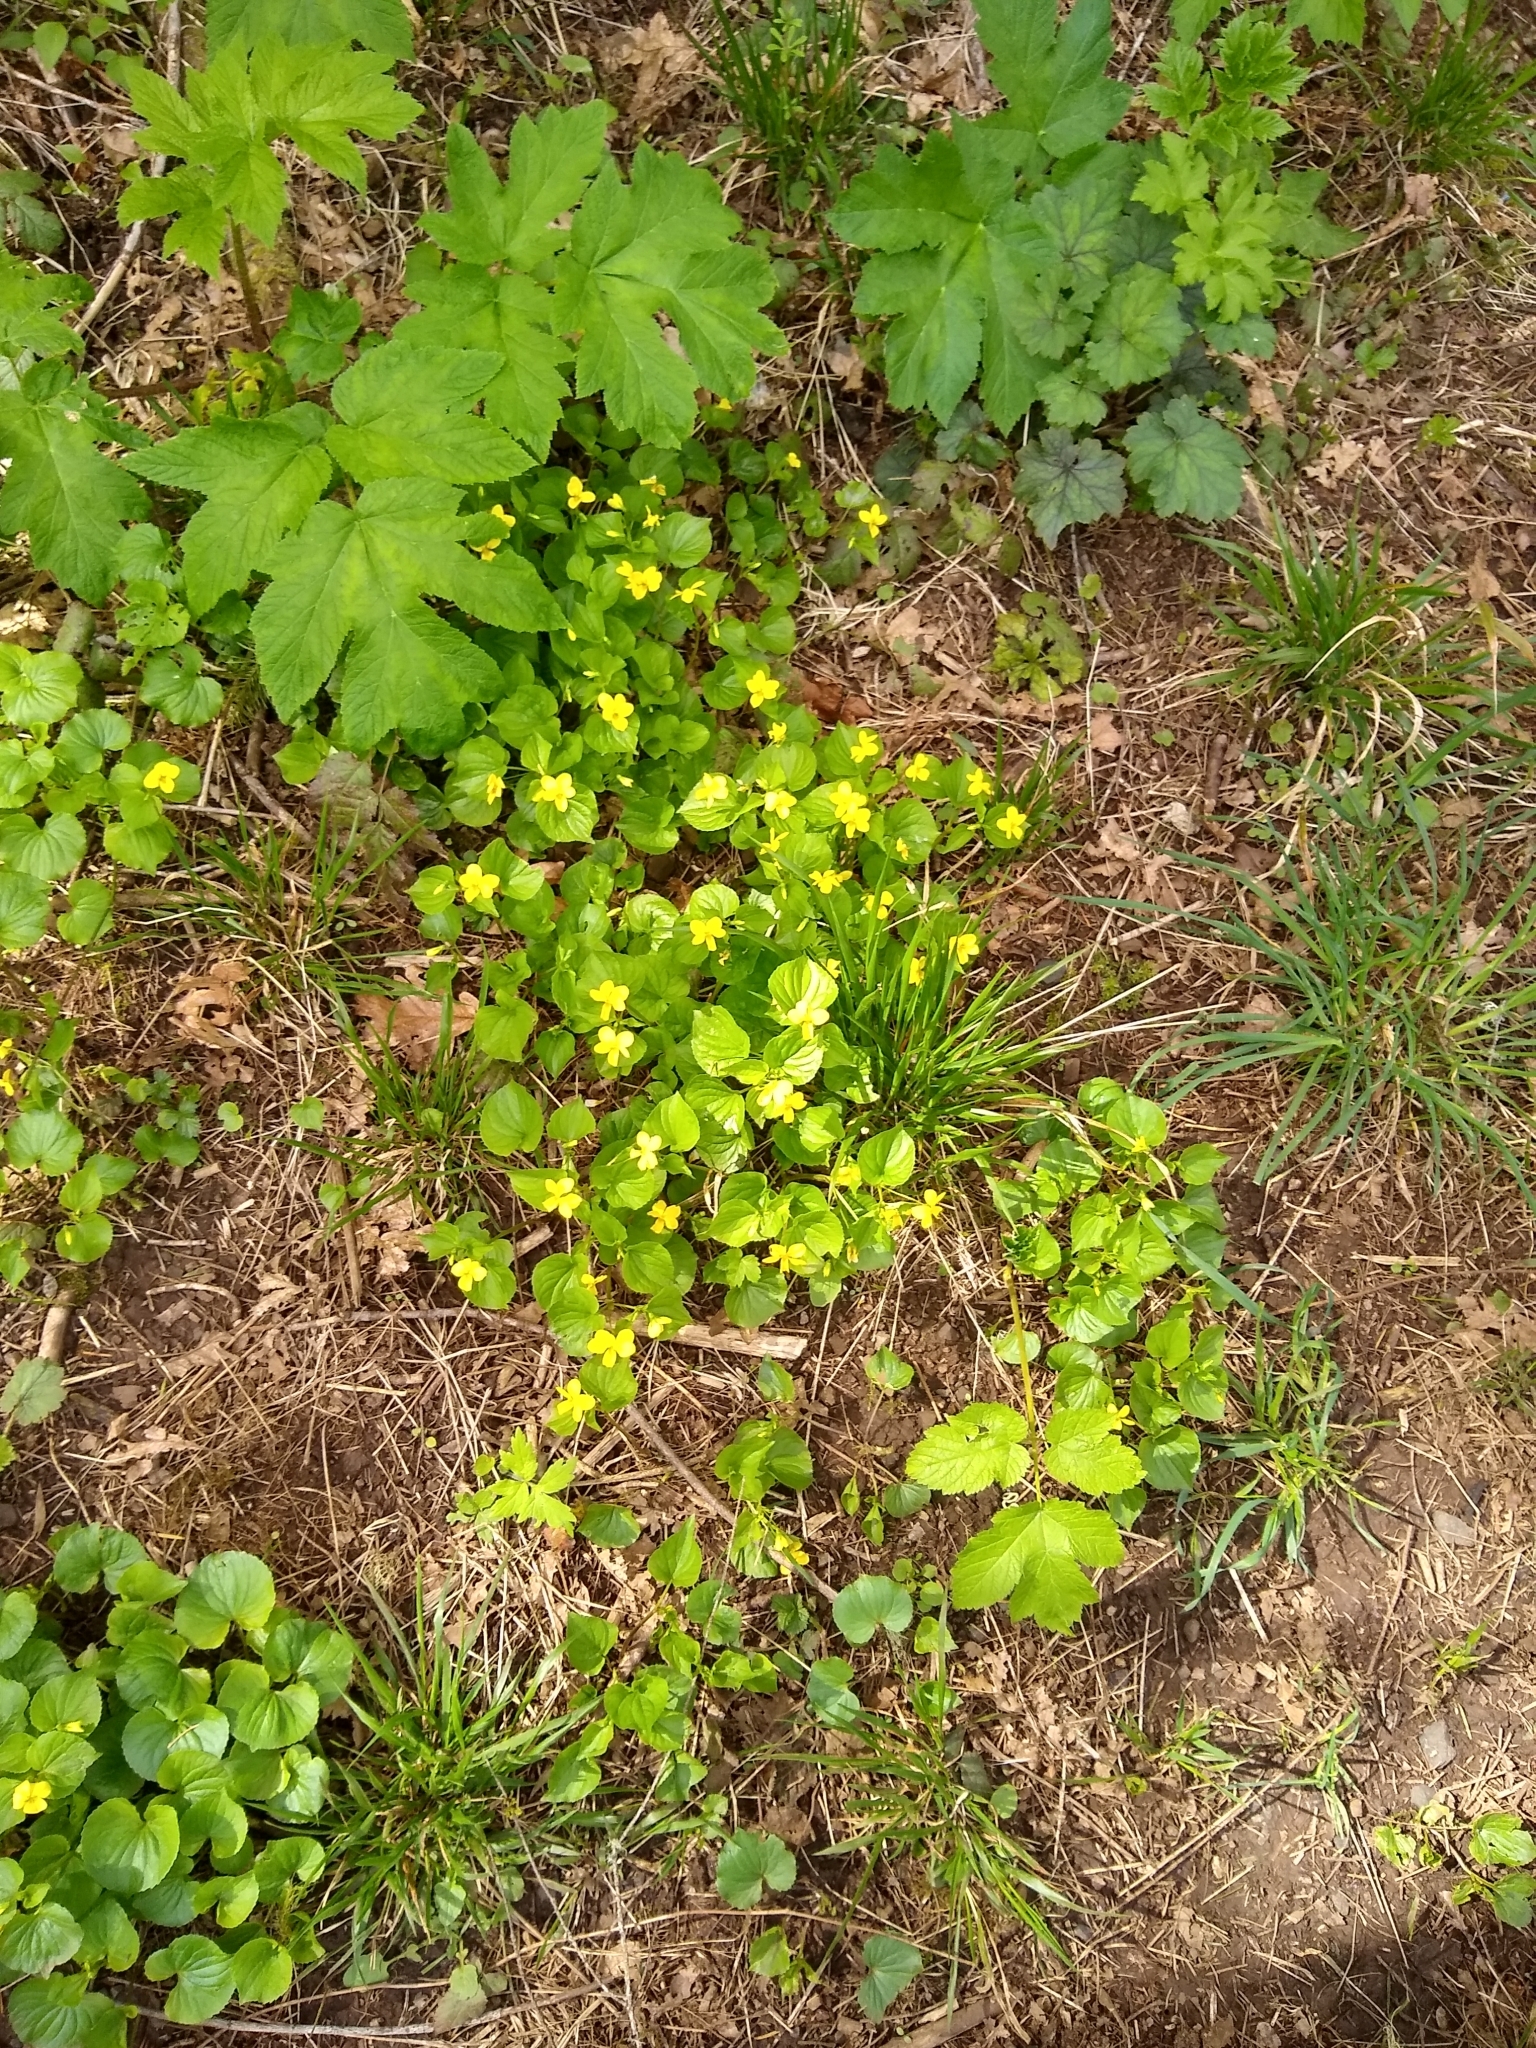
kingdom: Plantae
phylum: Tracheophyta
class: Magnoliopsida
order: Malpighiales
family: Violaceae
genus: Viola
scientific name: Viola glabella
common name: Stream violet
